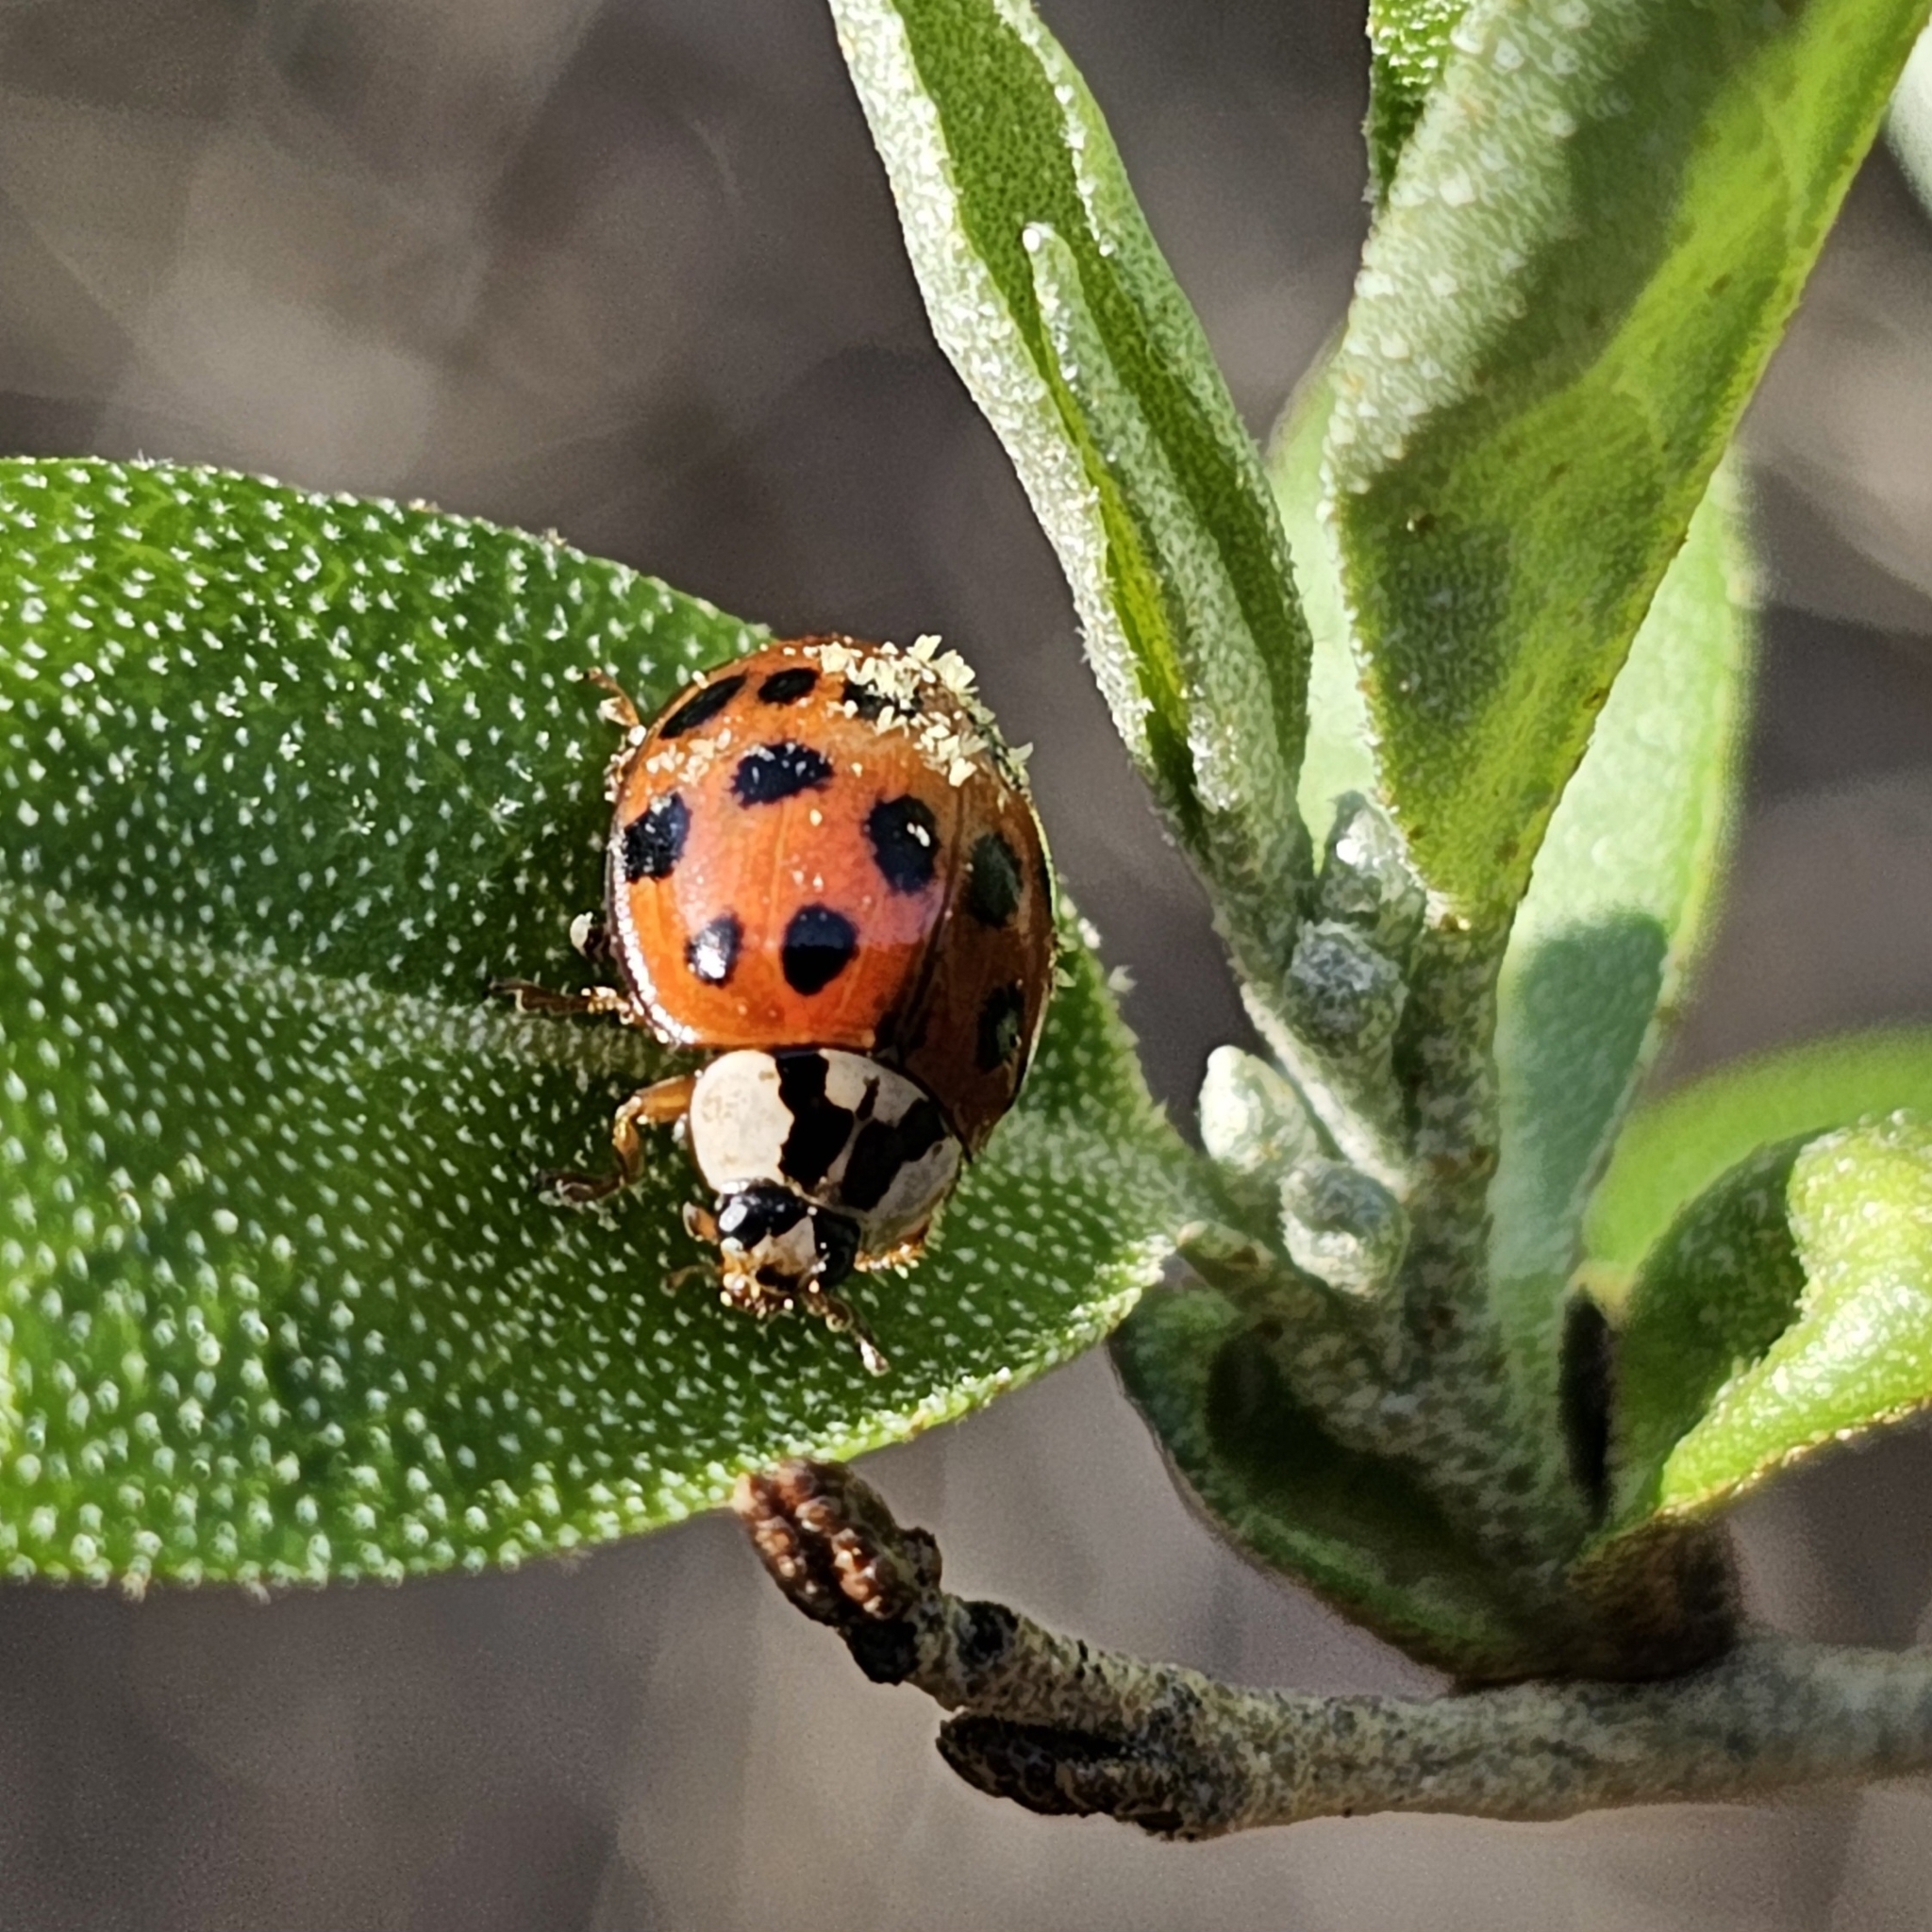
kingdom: Fungi
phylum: Ascomycota
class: Laboulbeniomycetes
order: Laboulbeniales
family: Laboulbeniaceae
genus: Hesperomyces
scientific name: Hesperomyces harmoniae
